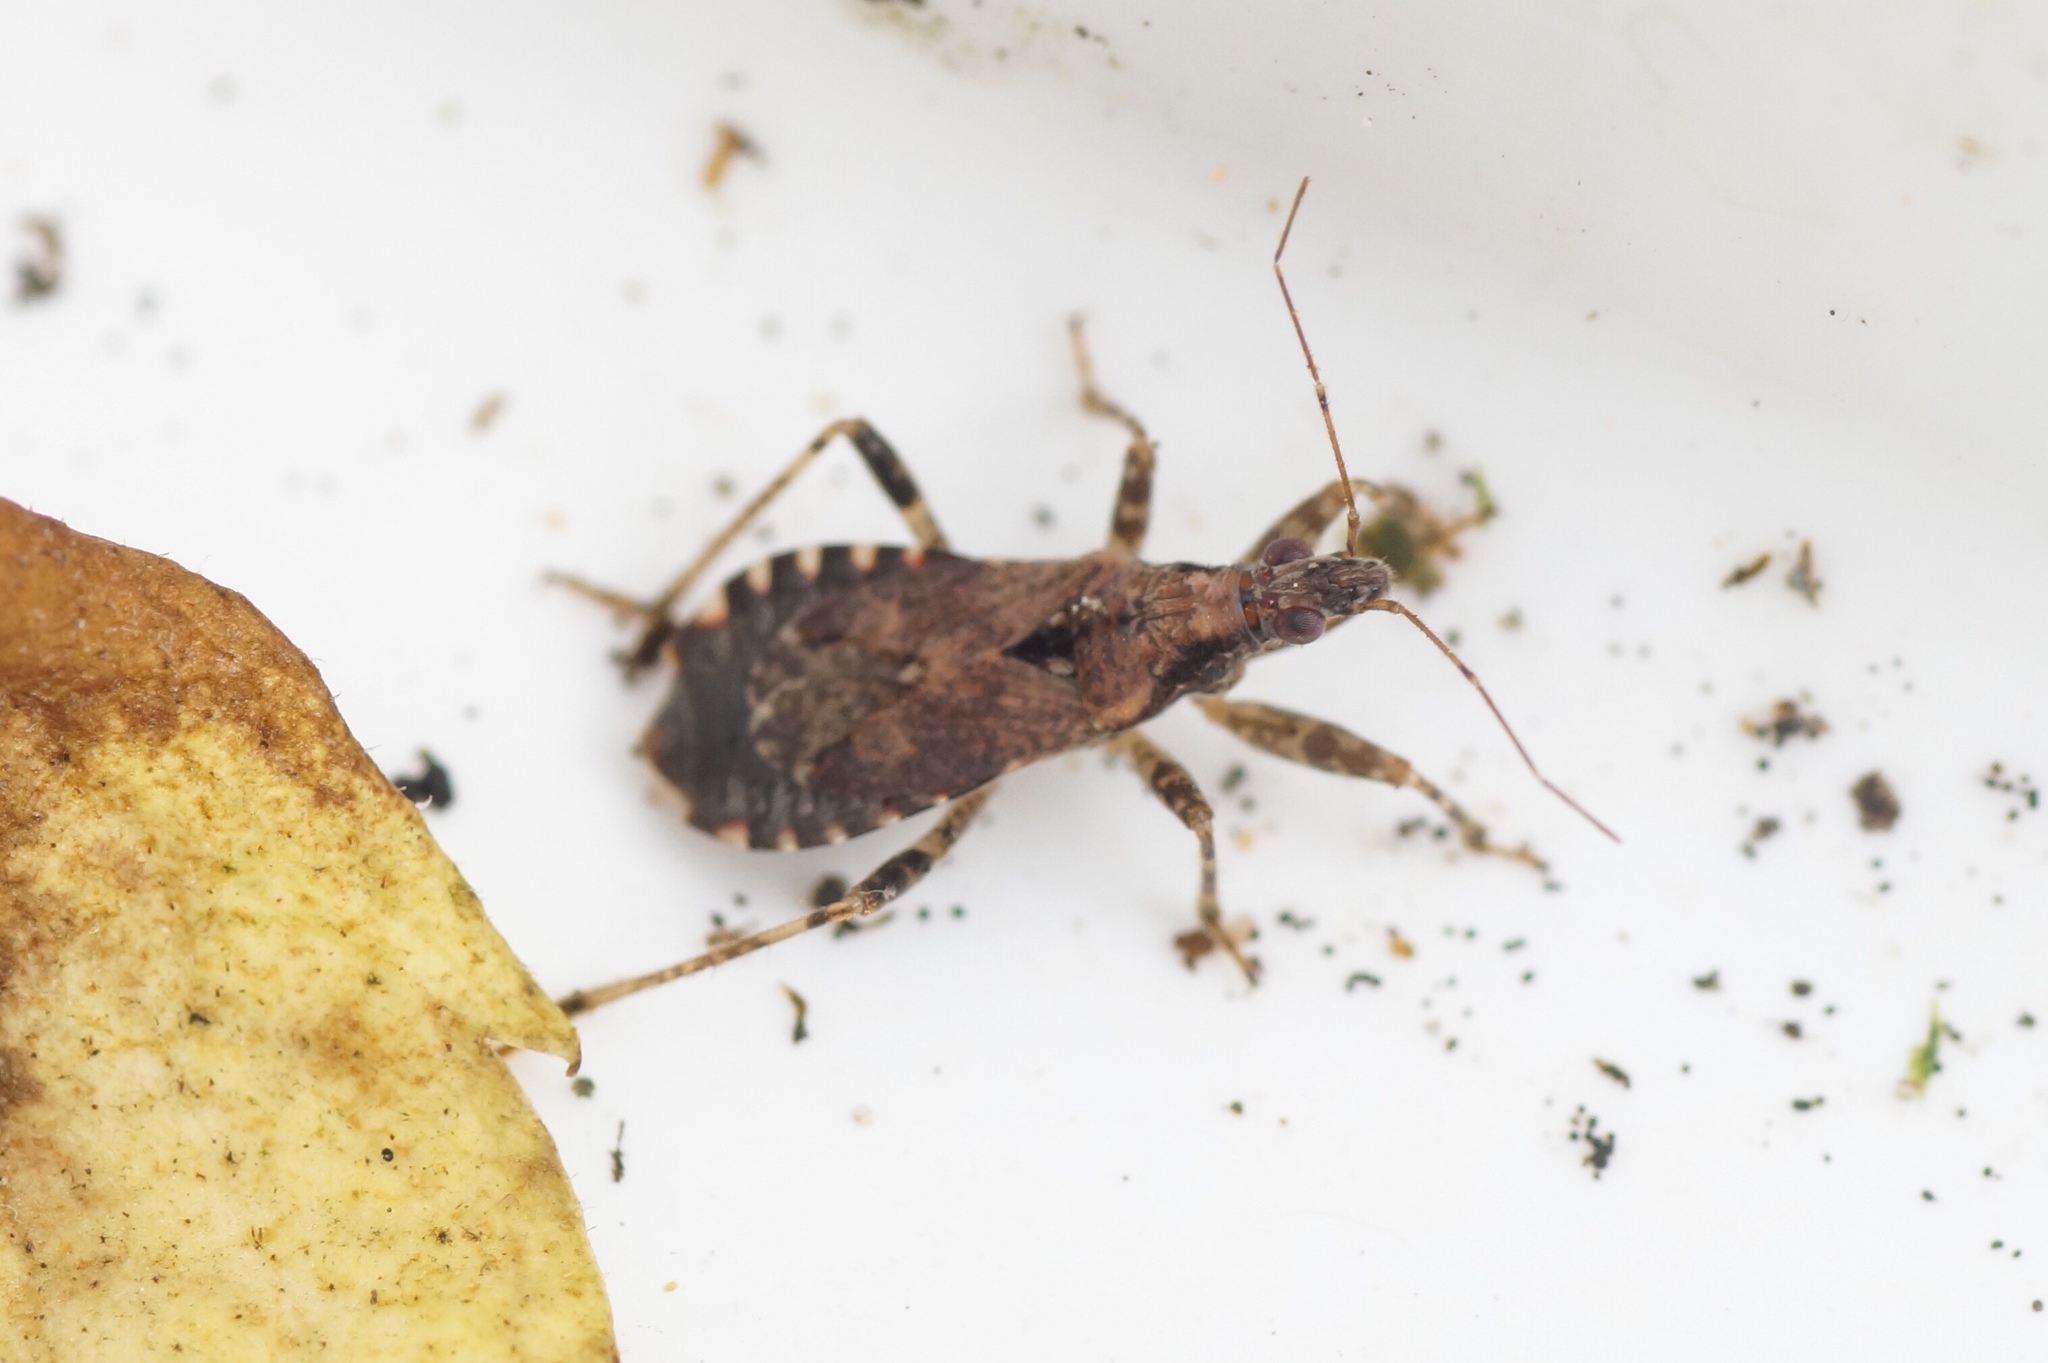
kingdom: Animalia
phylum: Arthropoda
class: Insecta
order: Hemiptera
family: Nabidae
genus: Himacerus
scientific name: Himacerus mirmicoides
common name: Ant damsel bug
